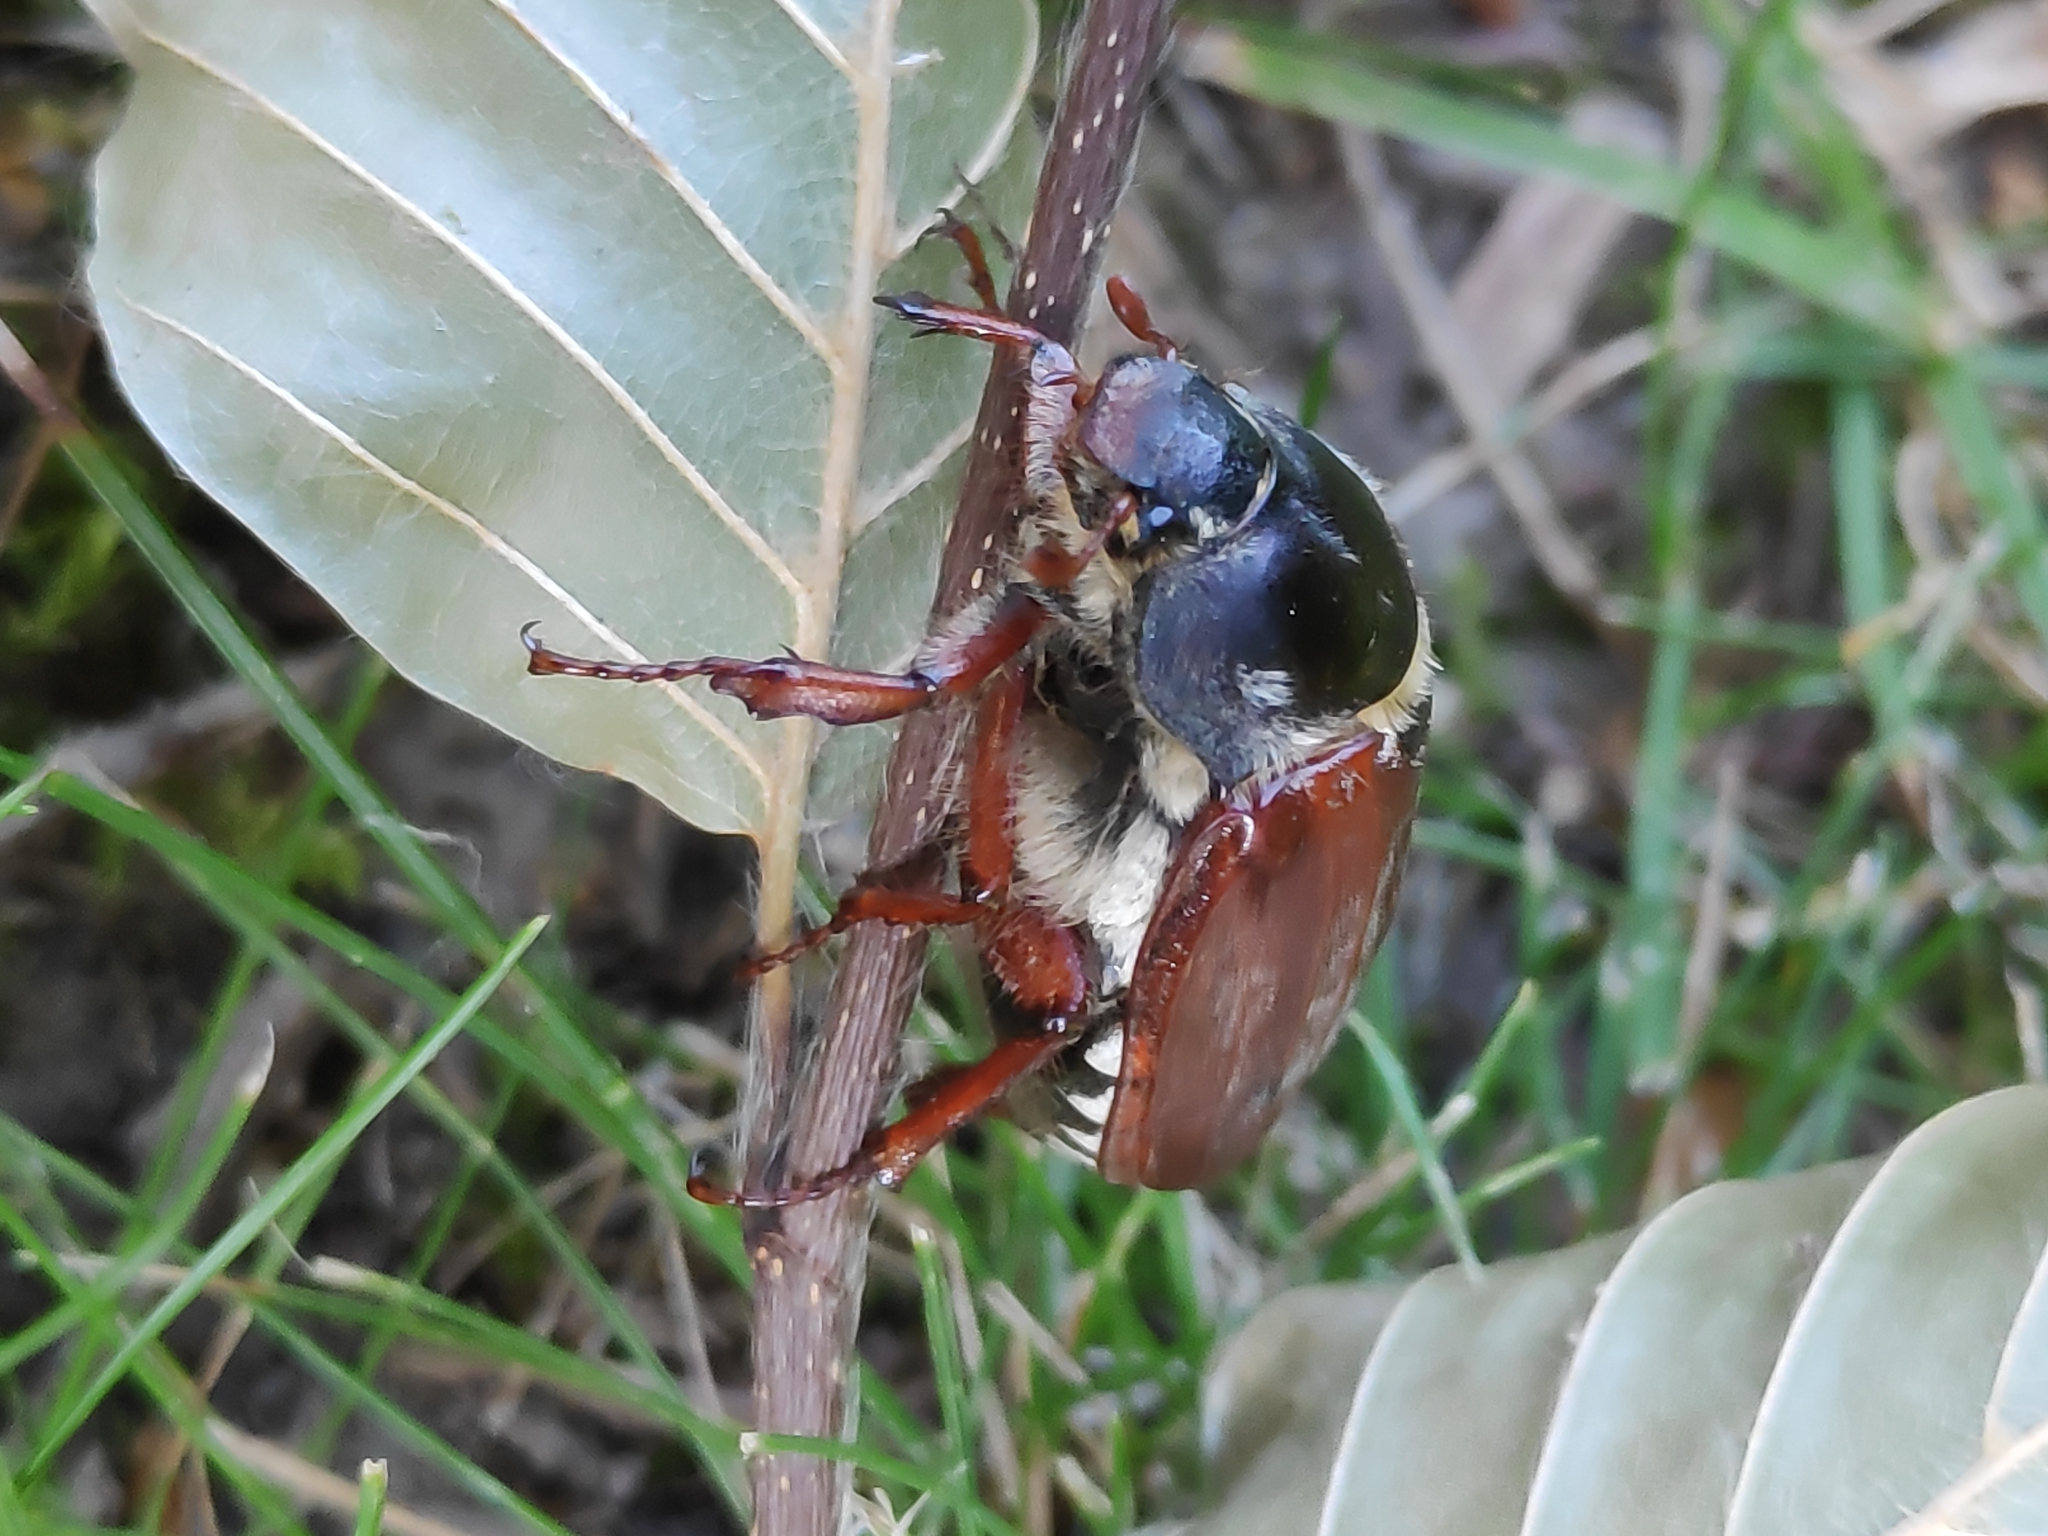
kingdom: Animalia
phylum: Arthropoda
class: Insecta
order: Coleoptera
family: Scarabaeidae
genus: Melolontha
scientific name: Melolontha melolontha
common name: Cockchafer maybeetle
